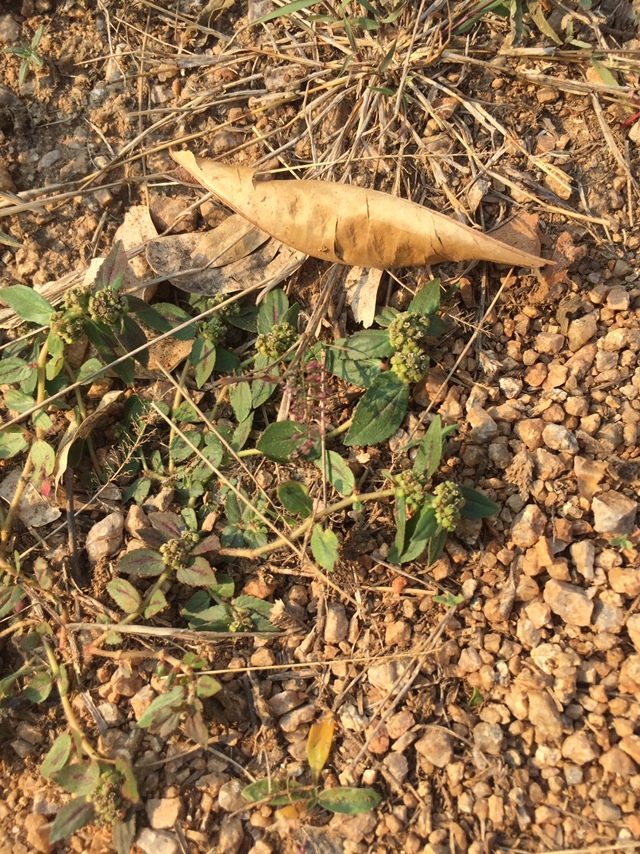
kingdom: Plantae
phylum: Tracheophyta
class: Magnoliopsida
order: Malpighiales
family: Euphorbiaceae
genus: Euphorbia
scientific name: Euphorbia hirta
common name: Pillpod sandmat
